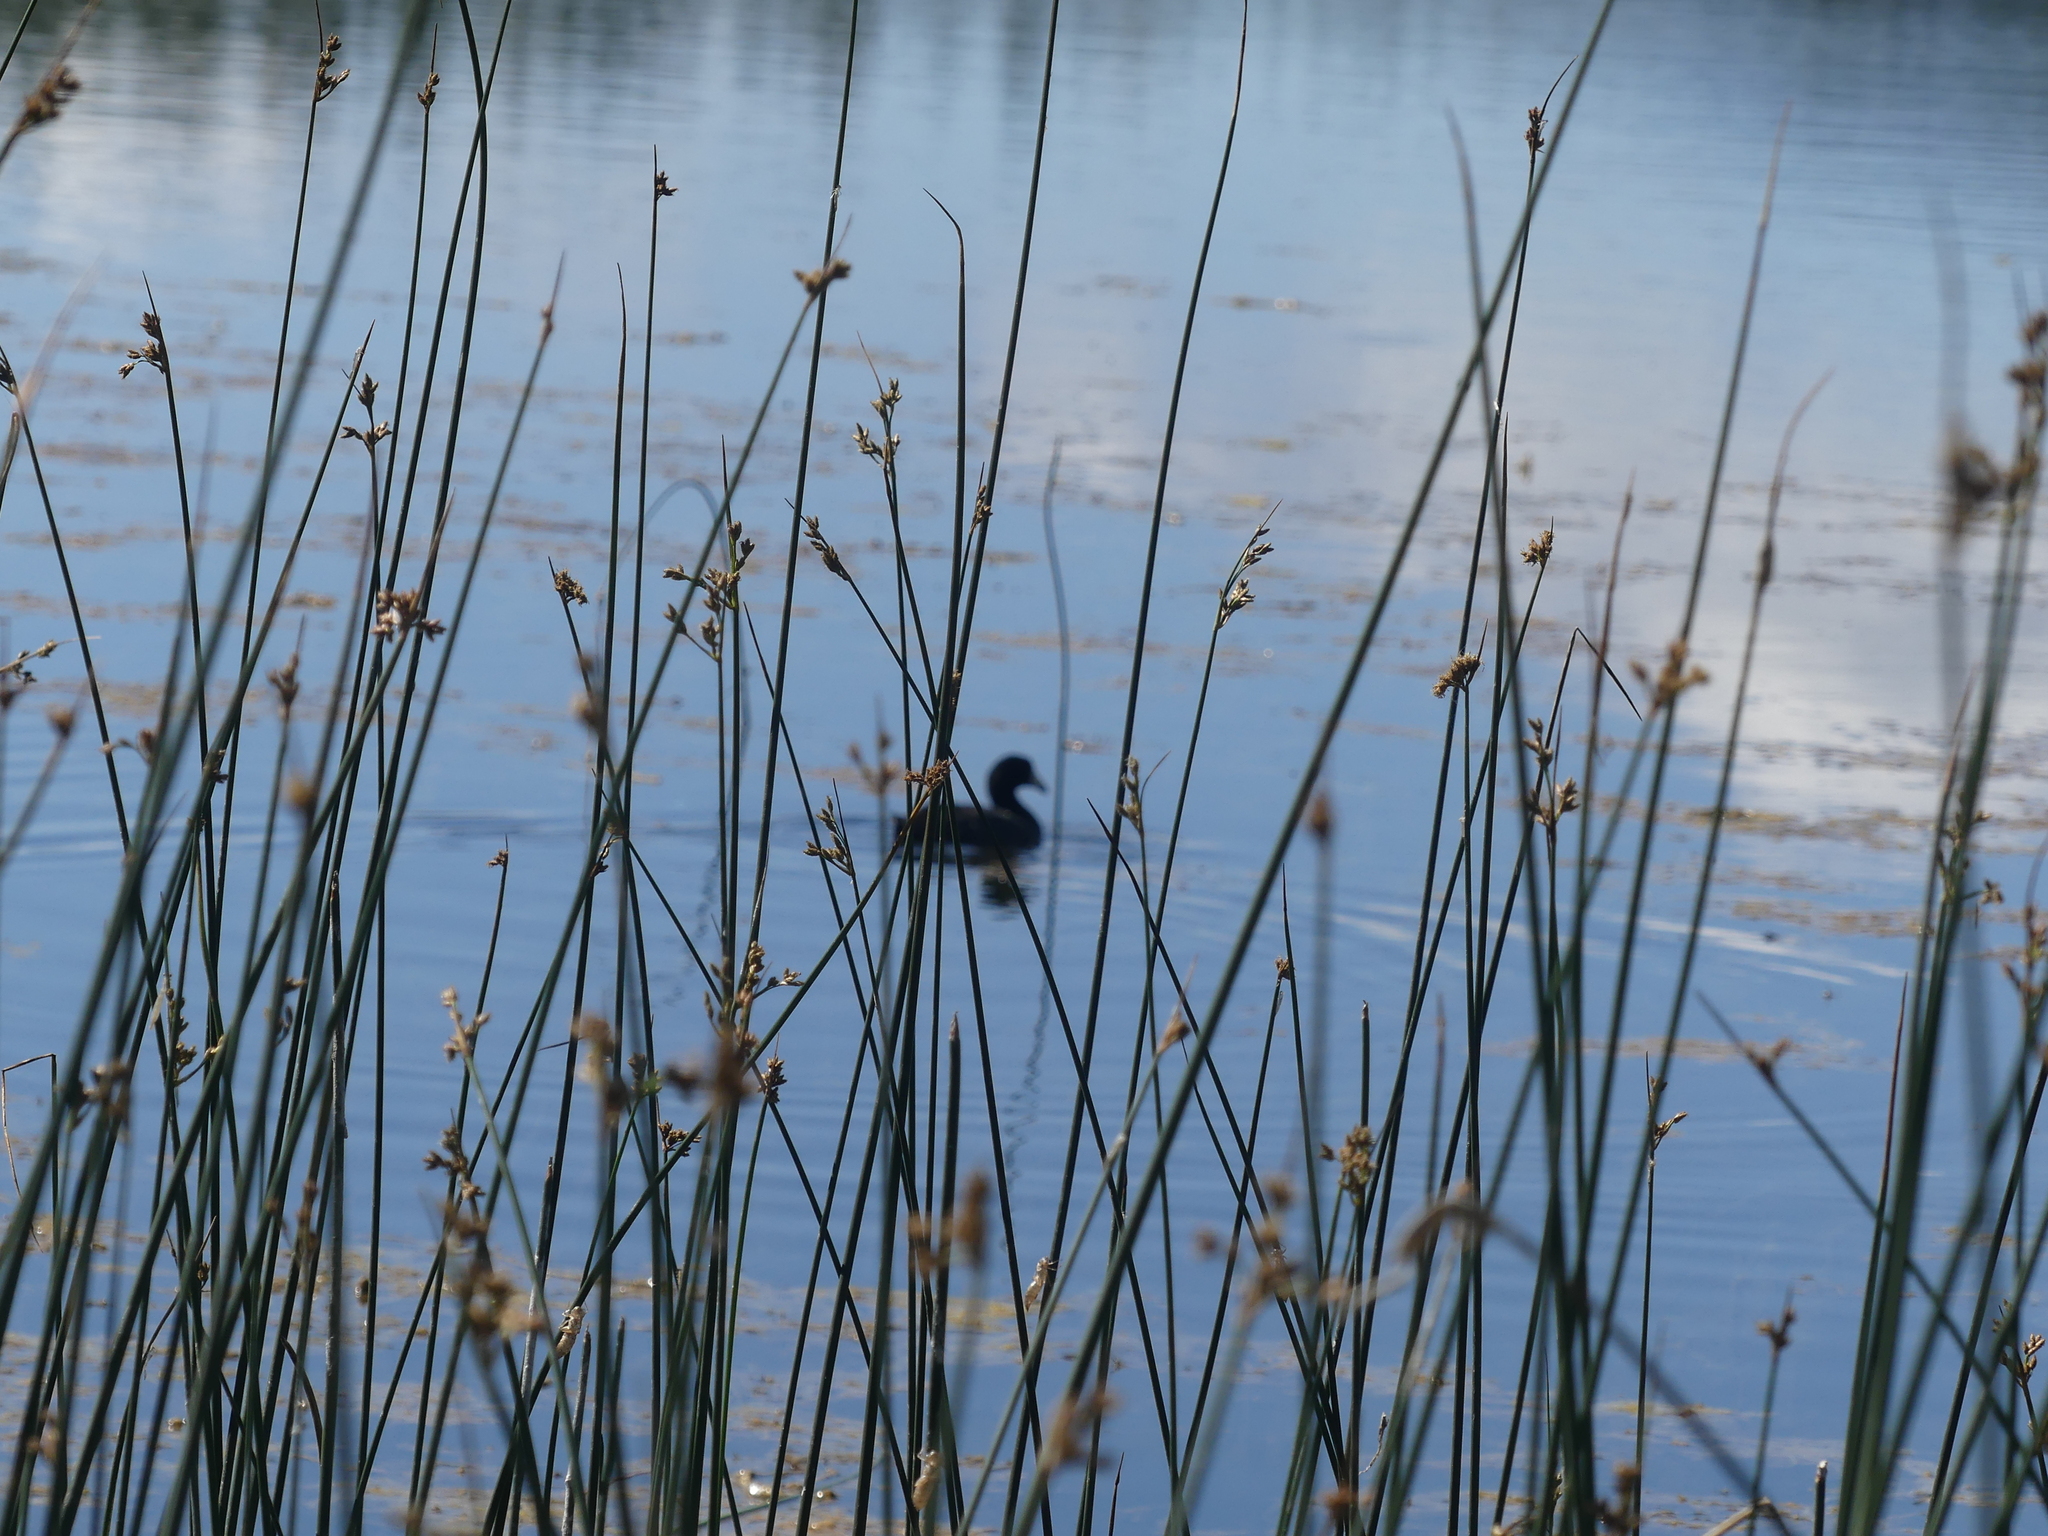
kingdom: Animalia
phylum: Chordata
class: Aves
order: Gruiformes
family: Rallidae
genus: Fulica
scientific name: Fulica americana
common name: American coot
